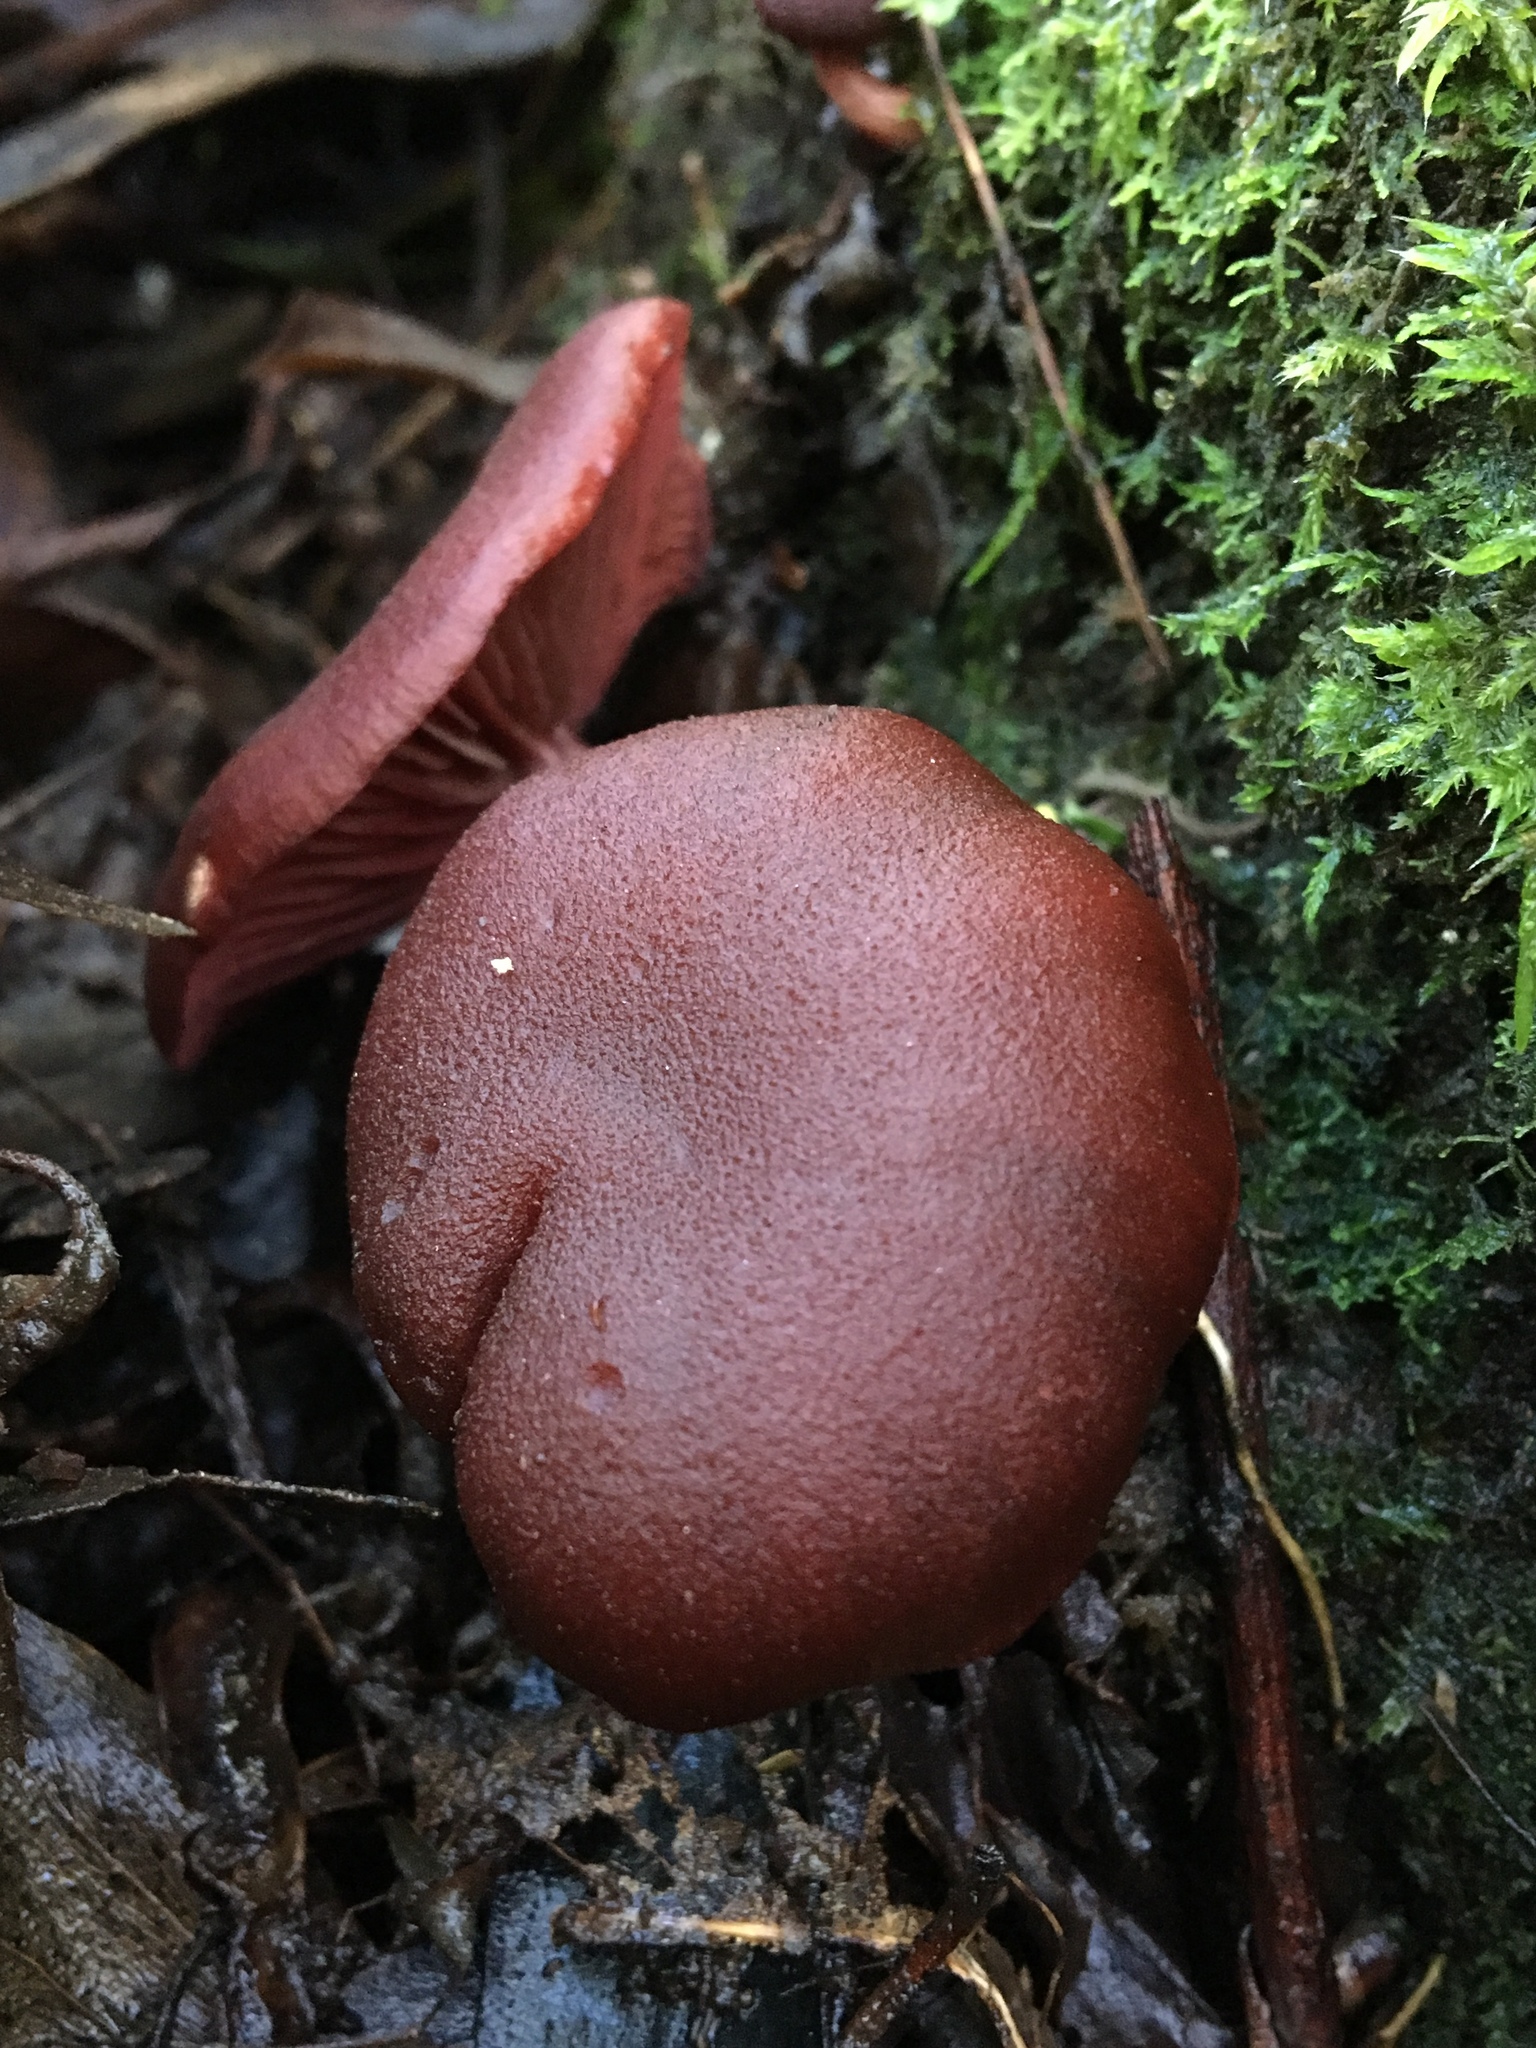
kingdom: Fungi
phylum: Basidiomycota
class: Agaricomycetes
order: Agaricales
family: Tubariaceae
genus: Tubaria
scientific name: Tubaria rufofulva
